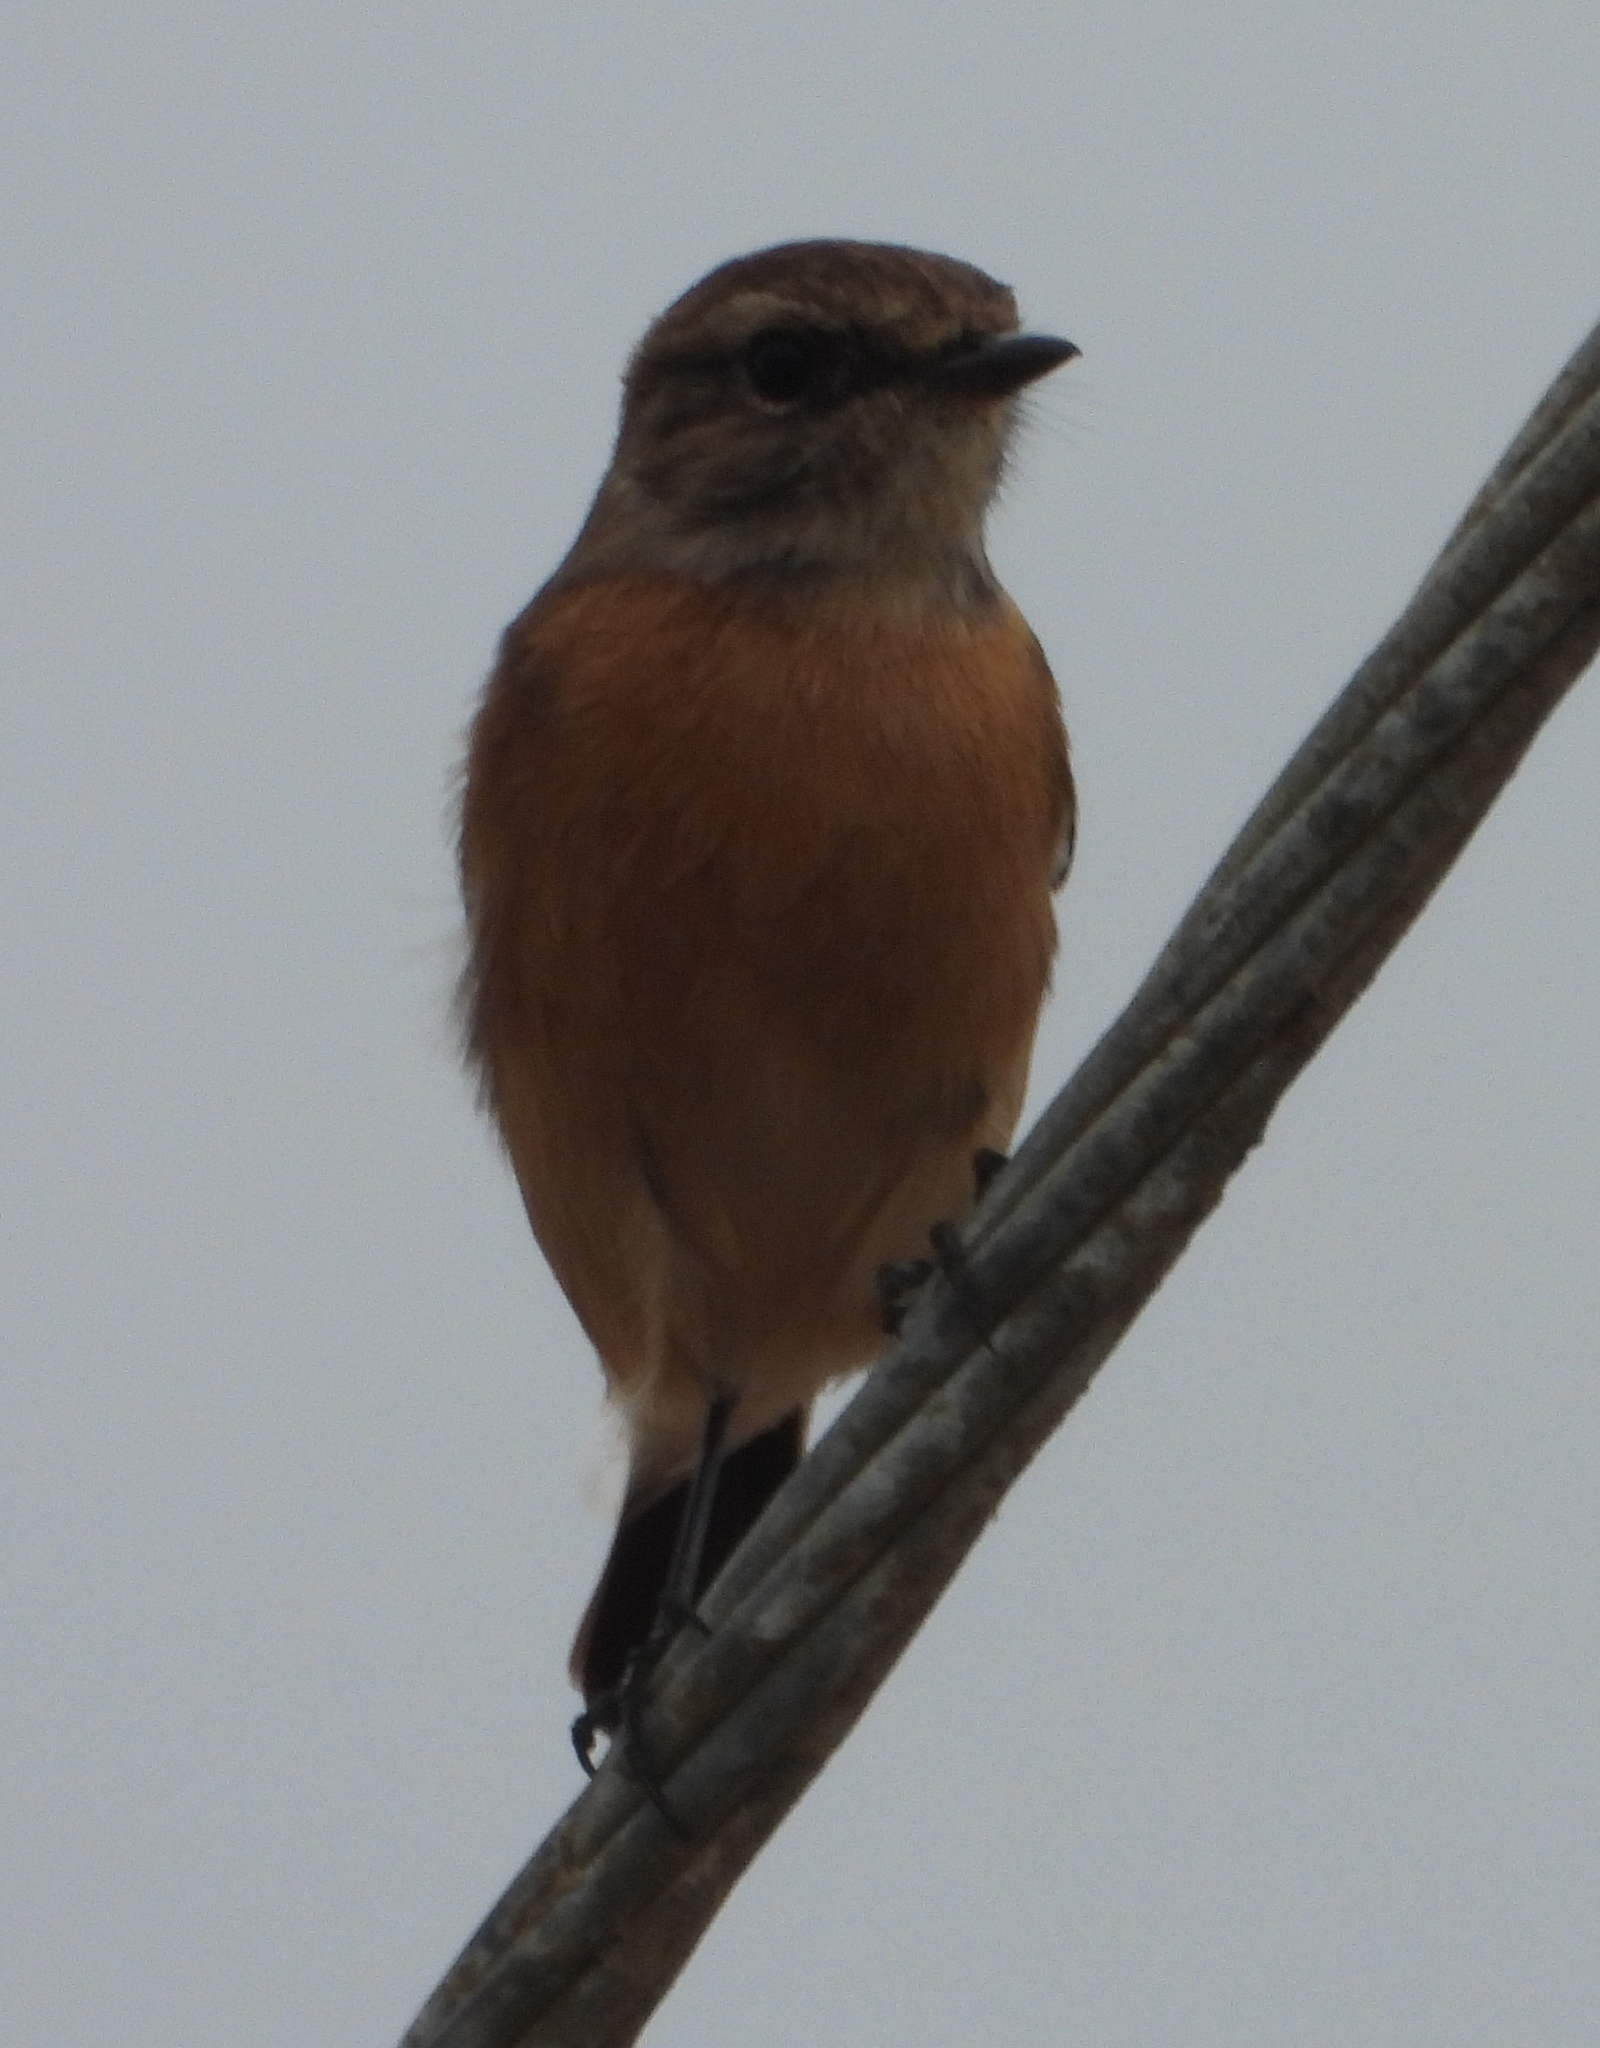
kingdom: Animalia
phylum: Chordata
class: Aves
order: Passeriformes
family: Muscicapidae
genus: Saxicola
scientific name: Saxicola torquatus
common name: African stonechat
